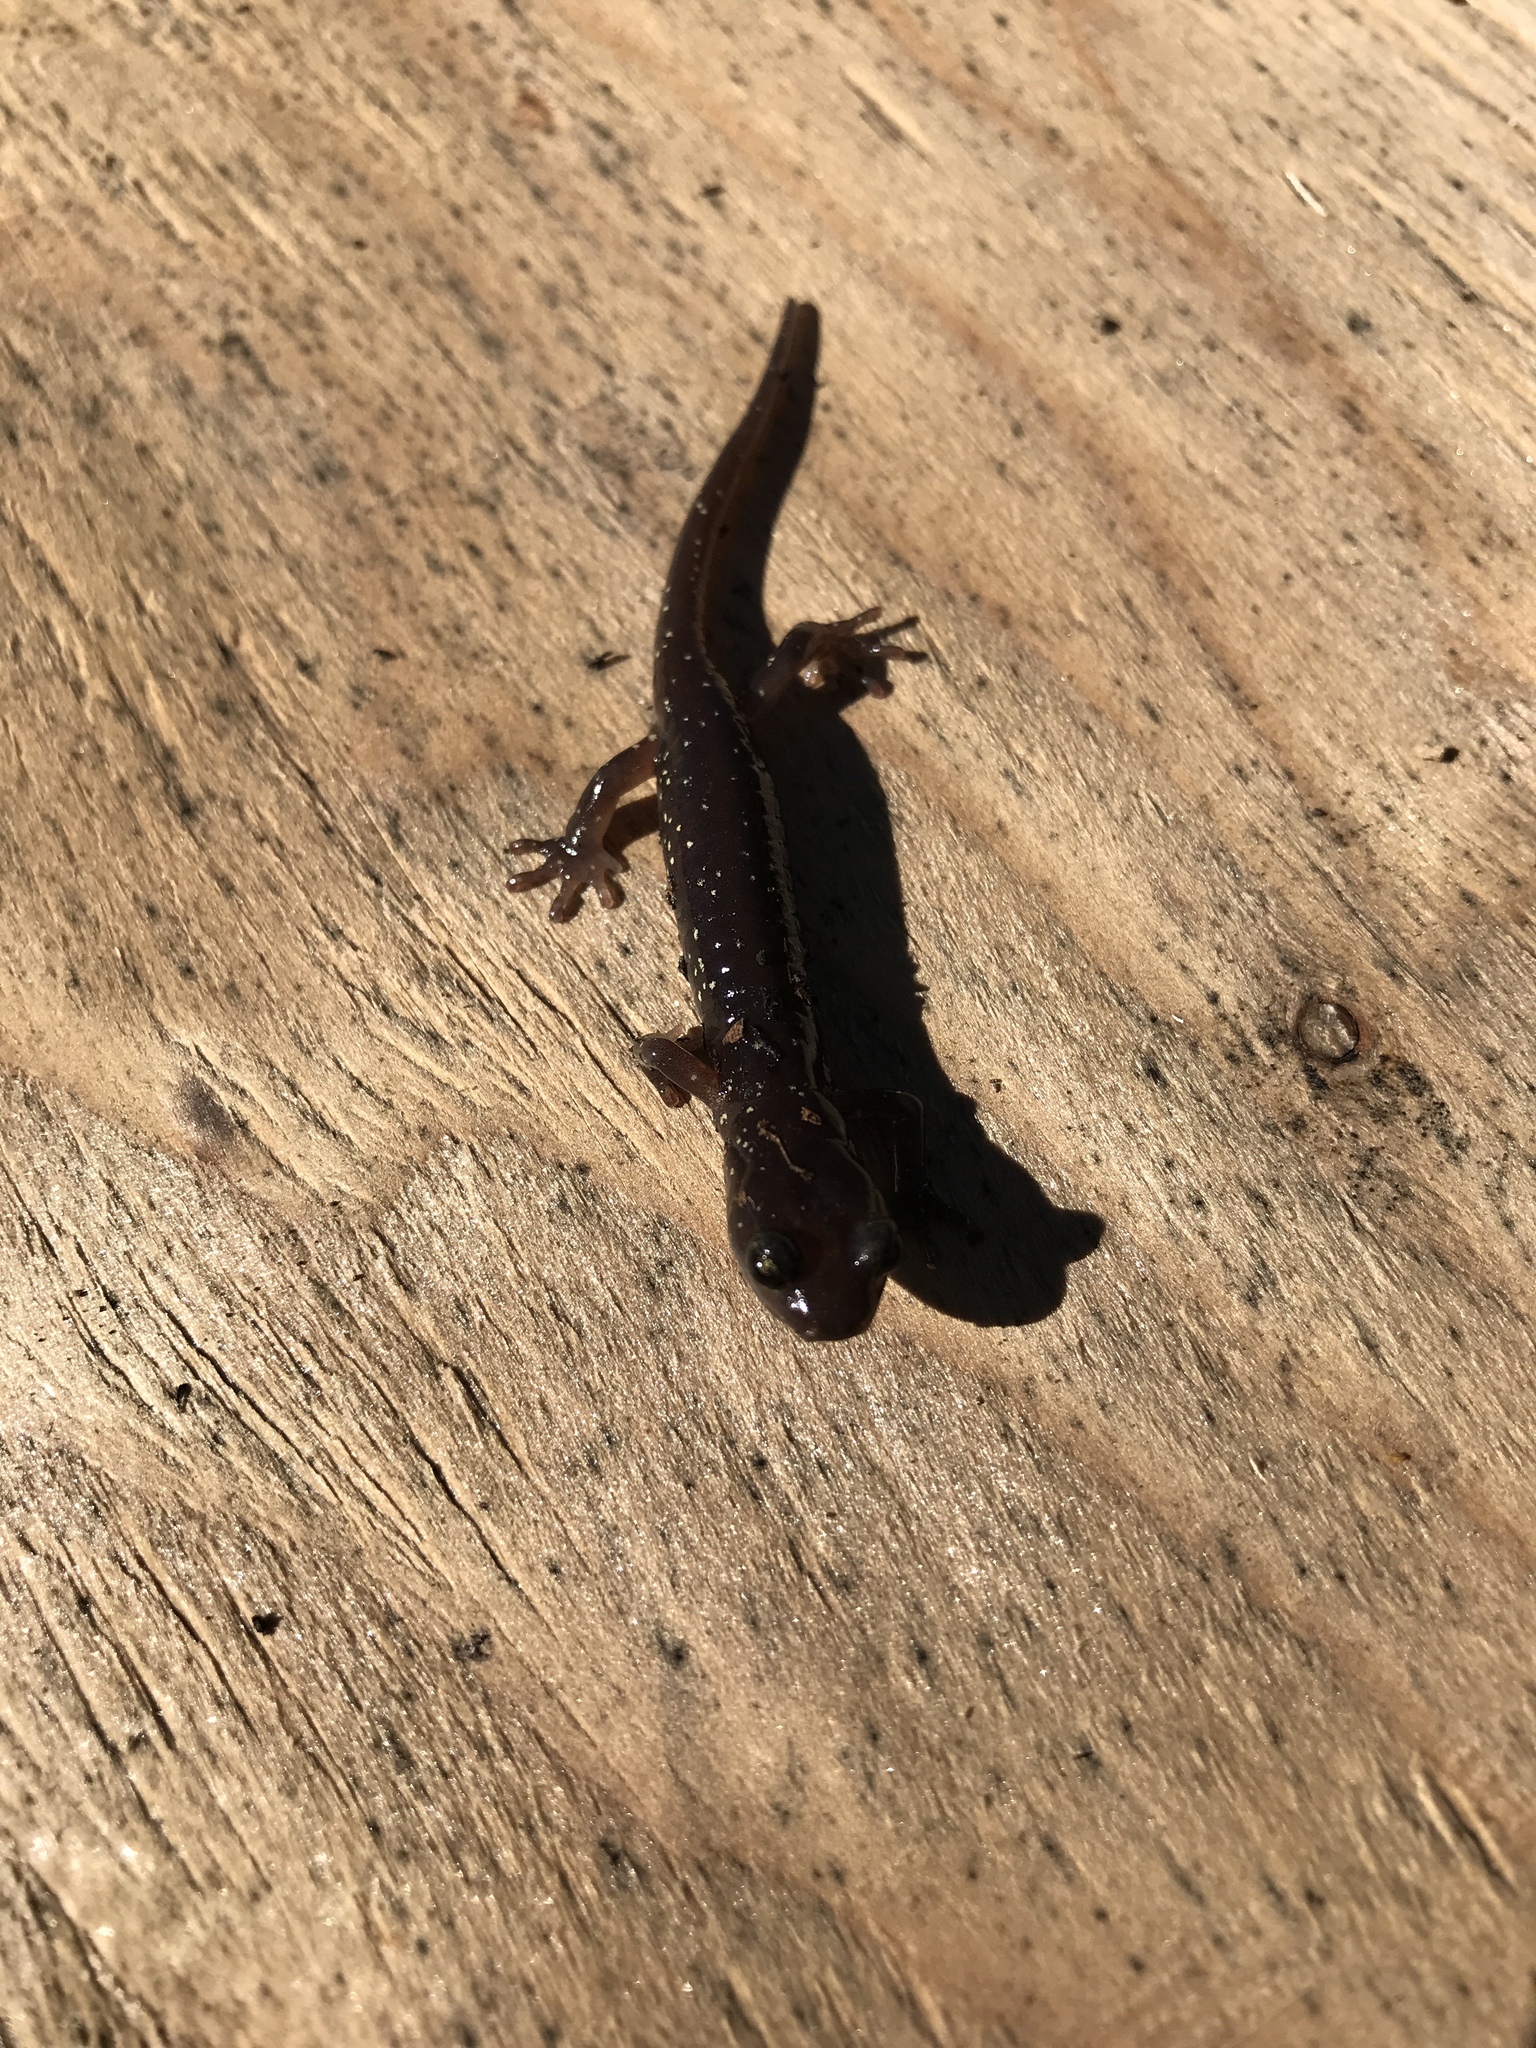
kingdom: Animalia
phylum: Chordata
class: Amphibia
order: Caudata
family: Plethodontidae
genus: Aneides
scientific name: Aneides lugubris
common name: Arboreal salamander
